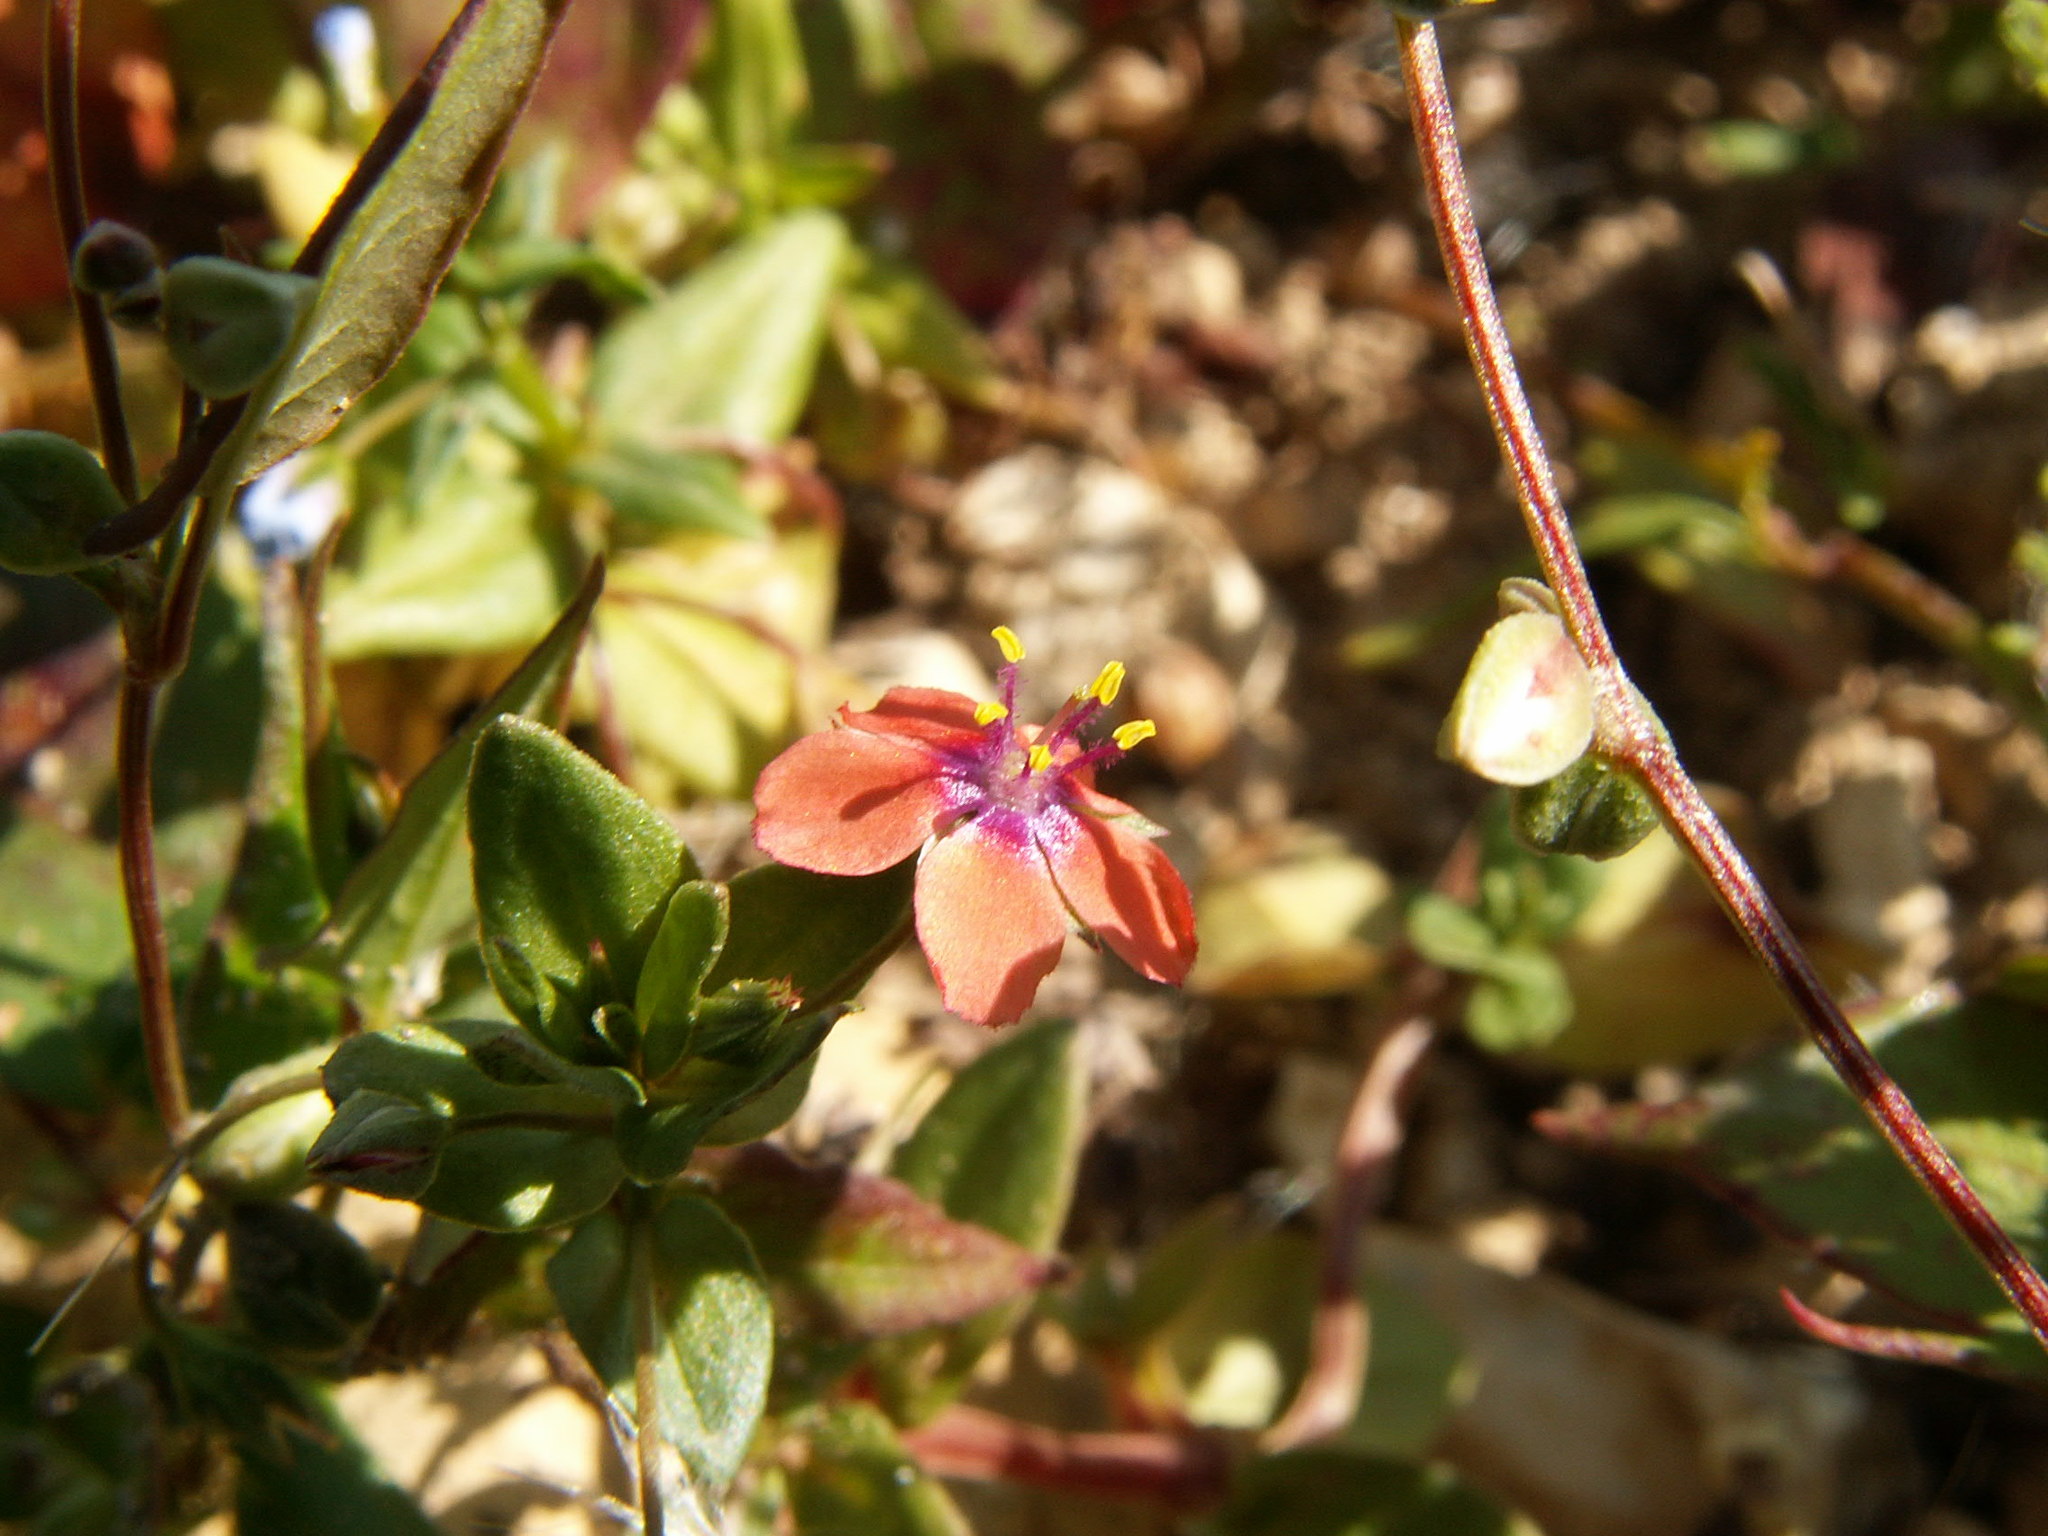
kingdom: Plantae
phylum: Tracheophyta
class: Magnoliopsida
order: Ericales
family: Primulaceae
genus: Lysimachia
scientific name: Lysimachia arvensis
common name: Scarlet pimpernel
